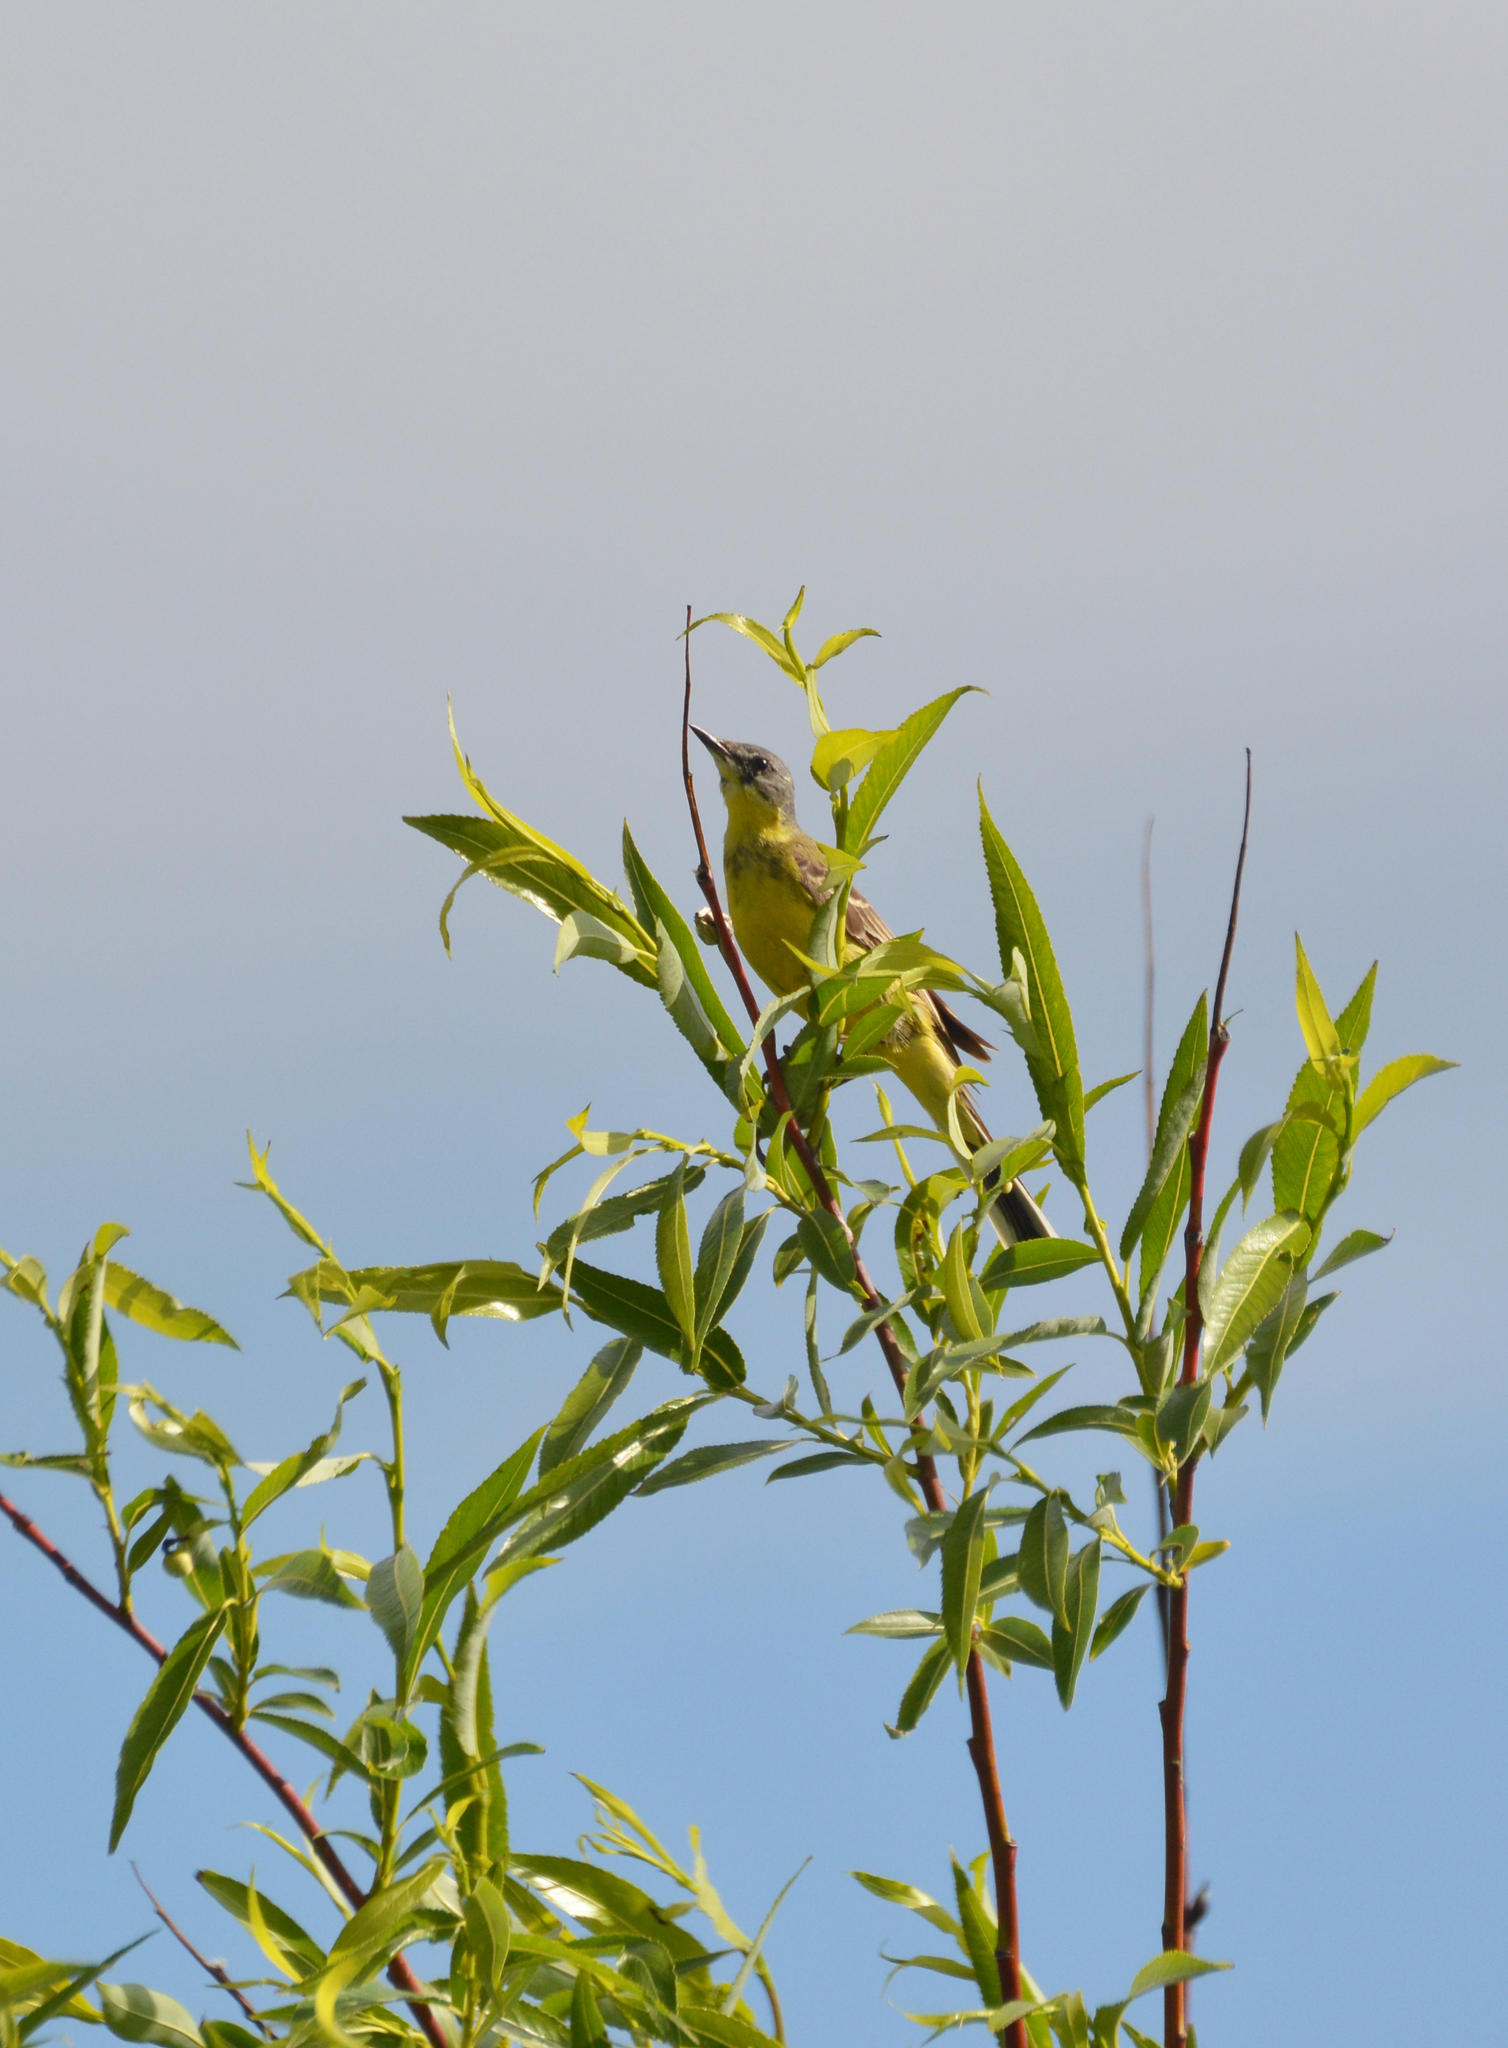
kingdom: Animalia
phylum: Chordata
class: Aves
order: Passeriformes
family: Motacillidae
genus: Motacilla
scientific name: Motacilla flava
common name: Western yellow wagtail
